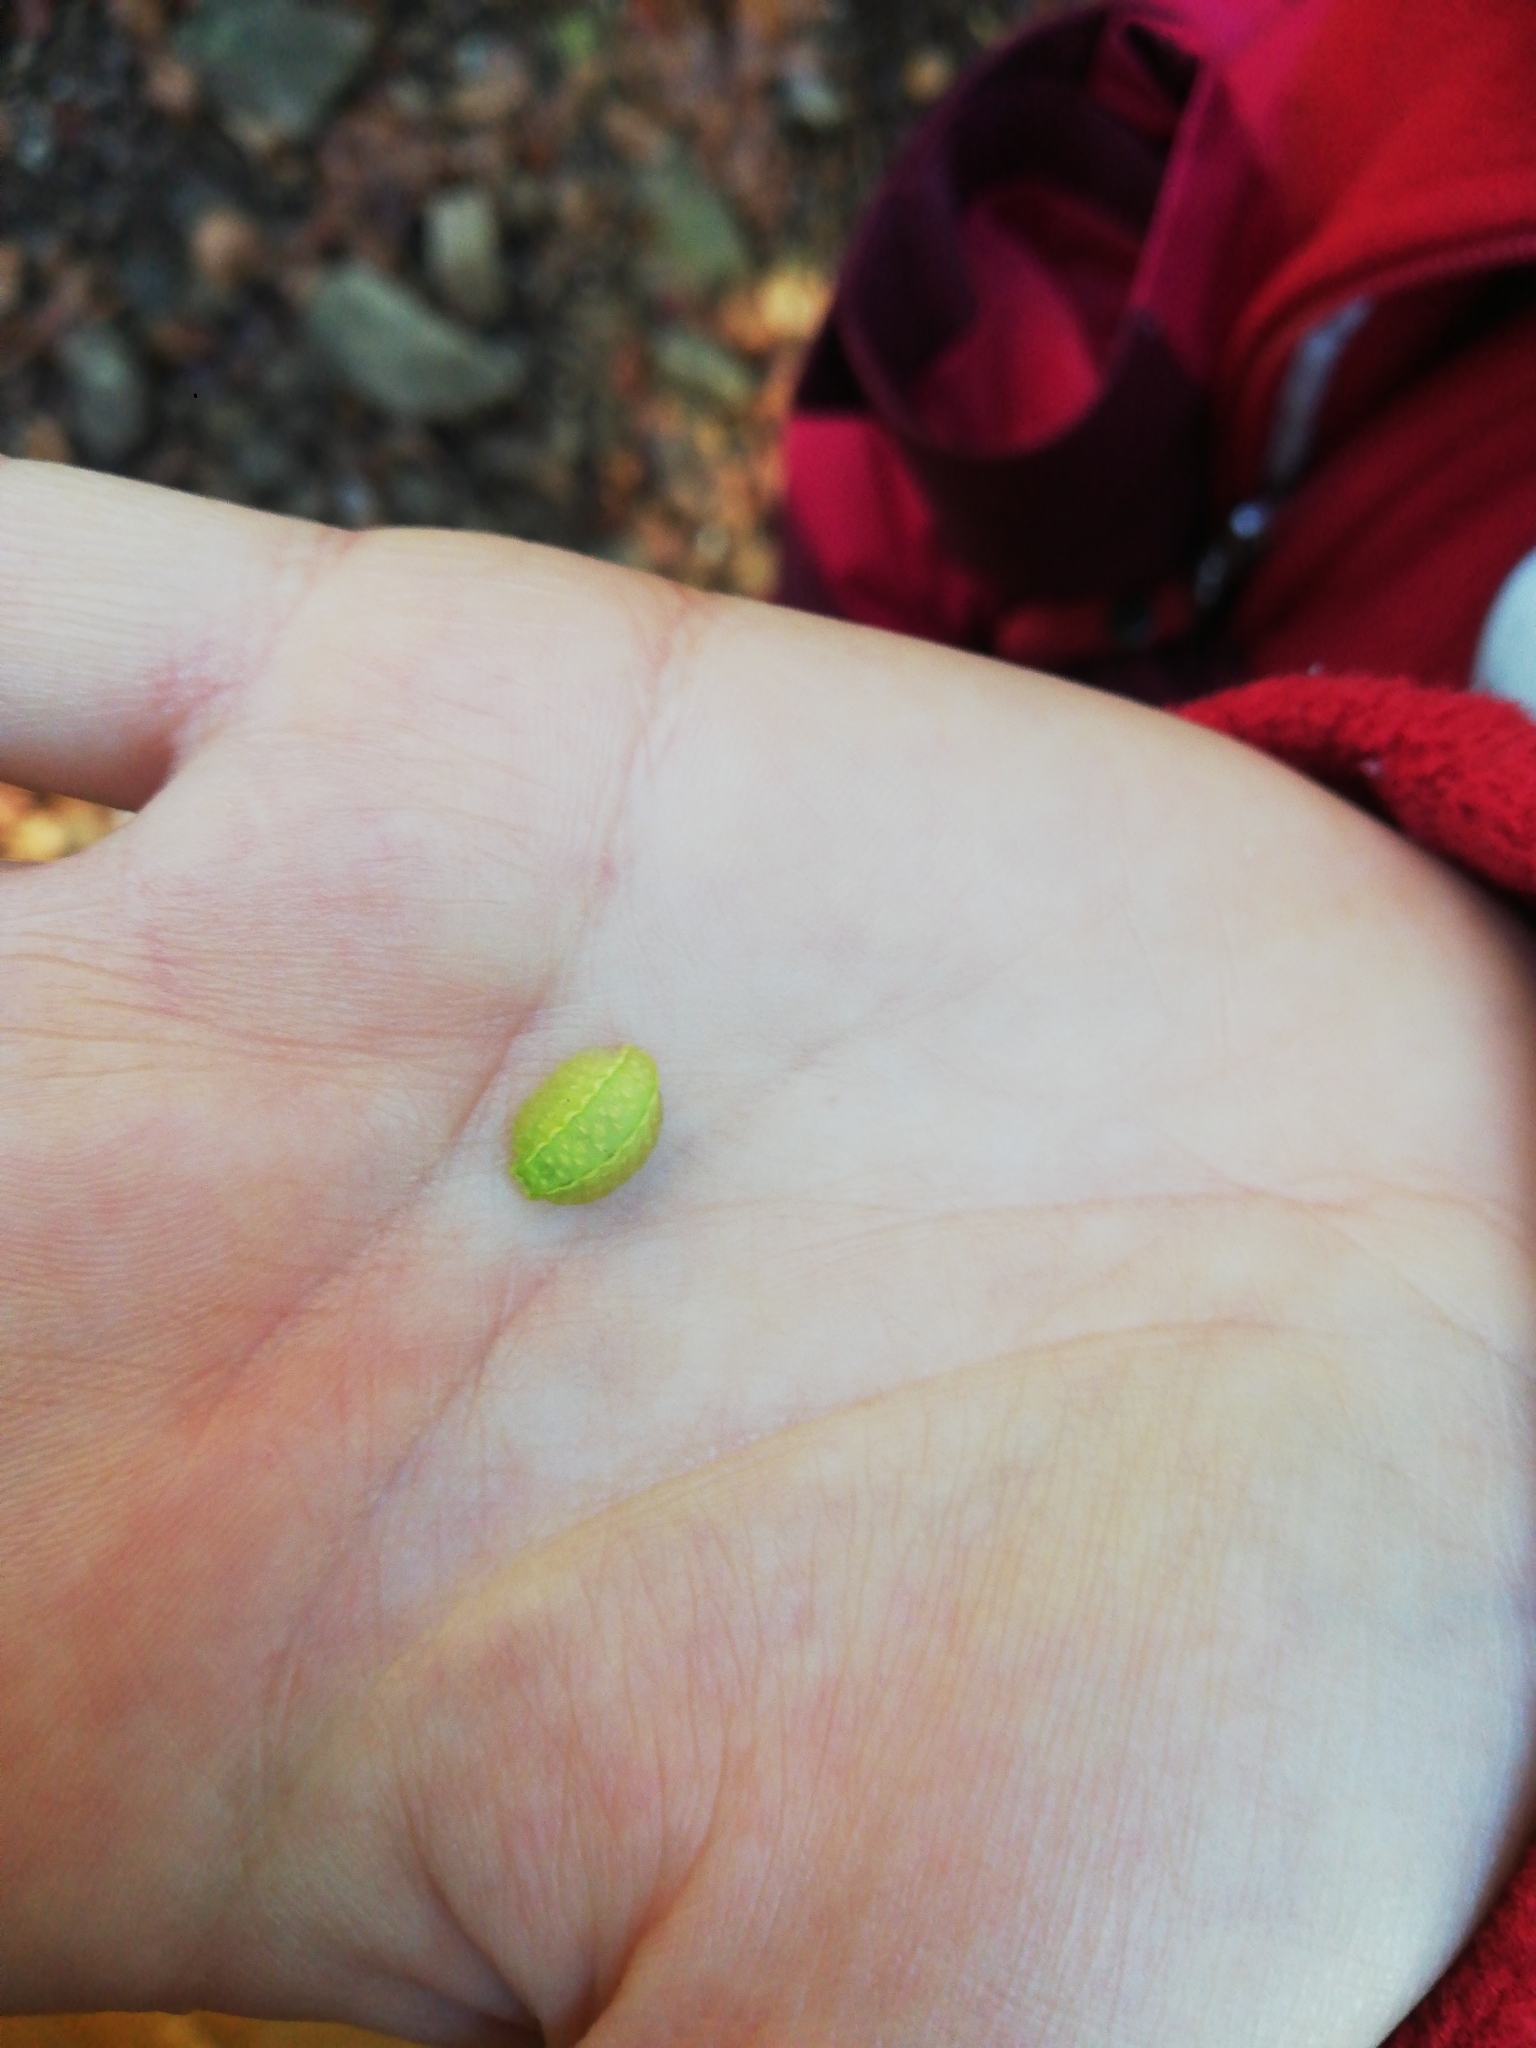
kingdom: Animalia
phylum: Arthropoda
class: Insecta
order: Lepidoptera
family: Limacodidae
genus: Apoda
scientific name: Apoda limacodes
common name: Festoon
